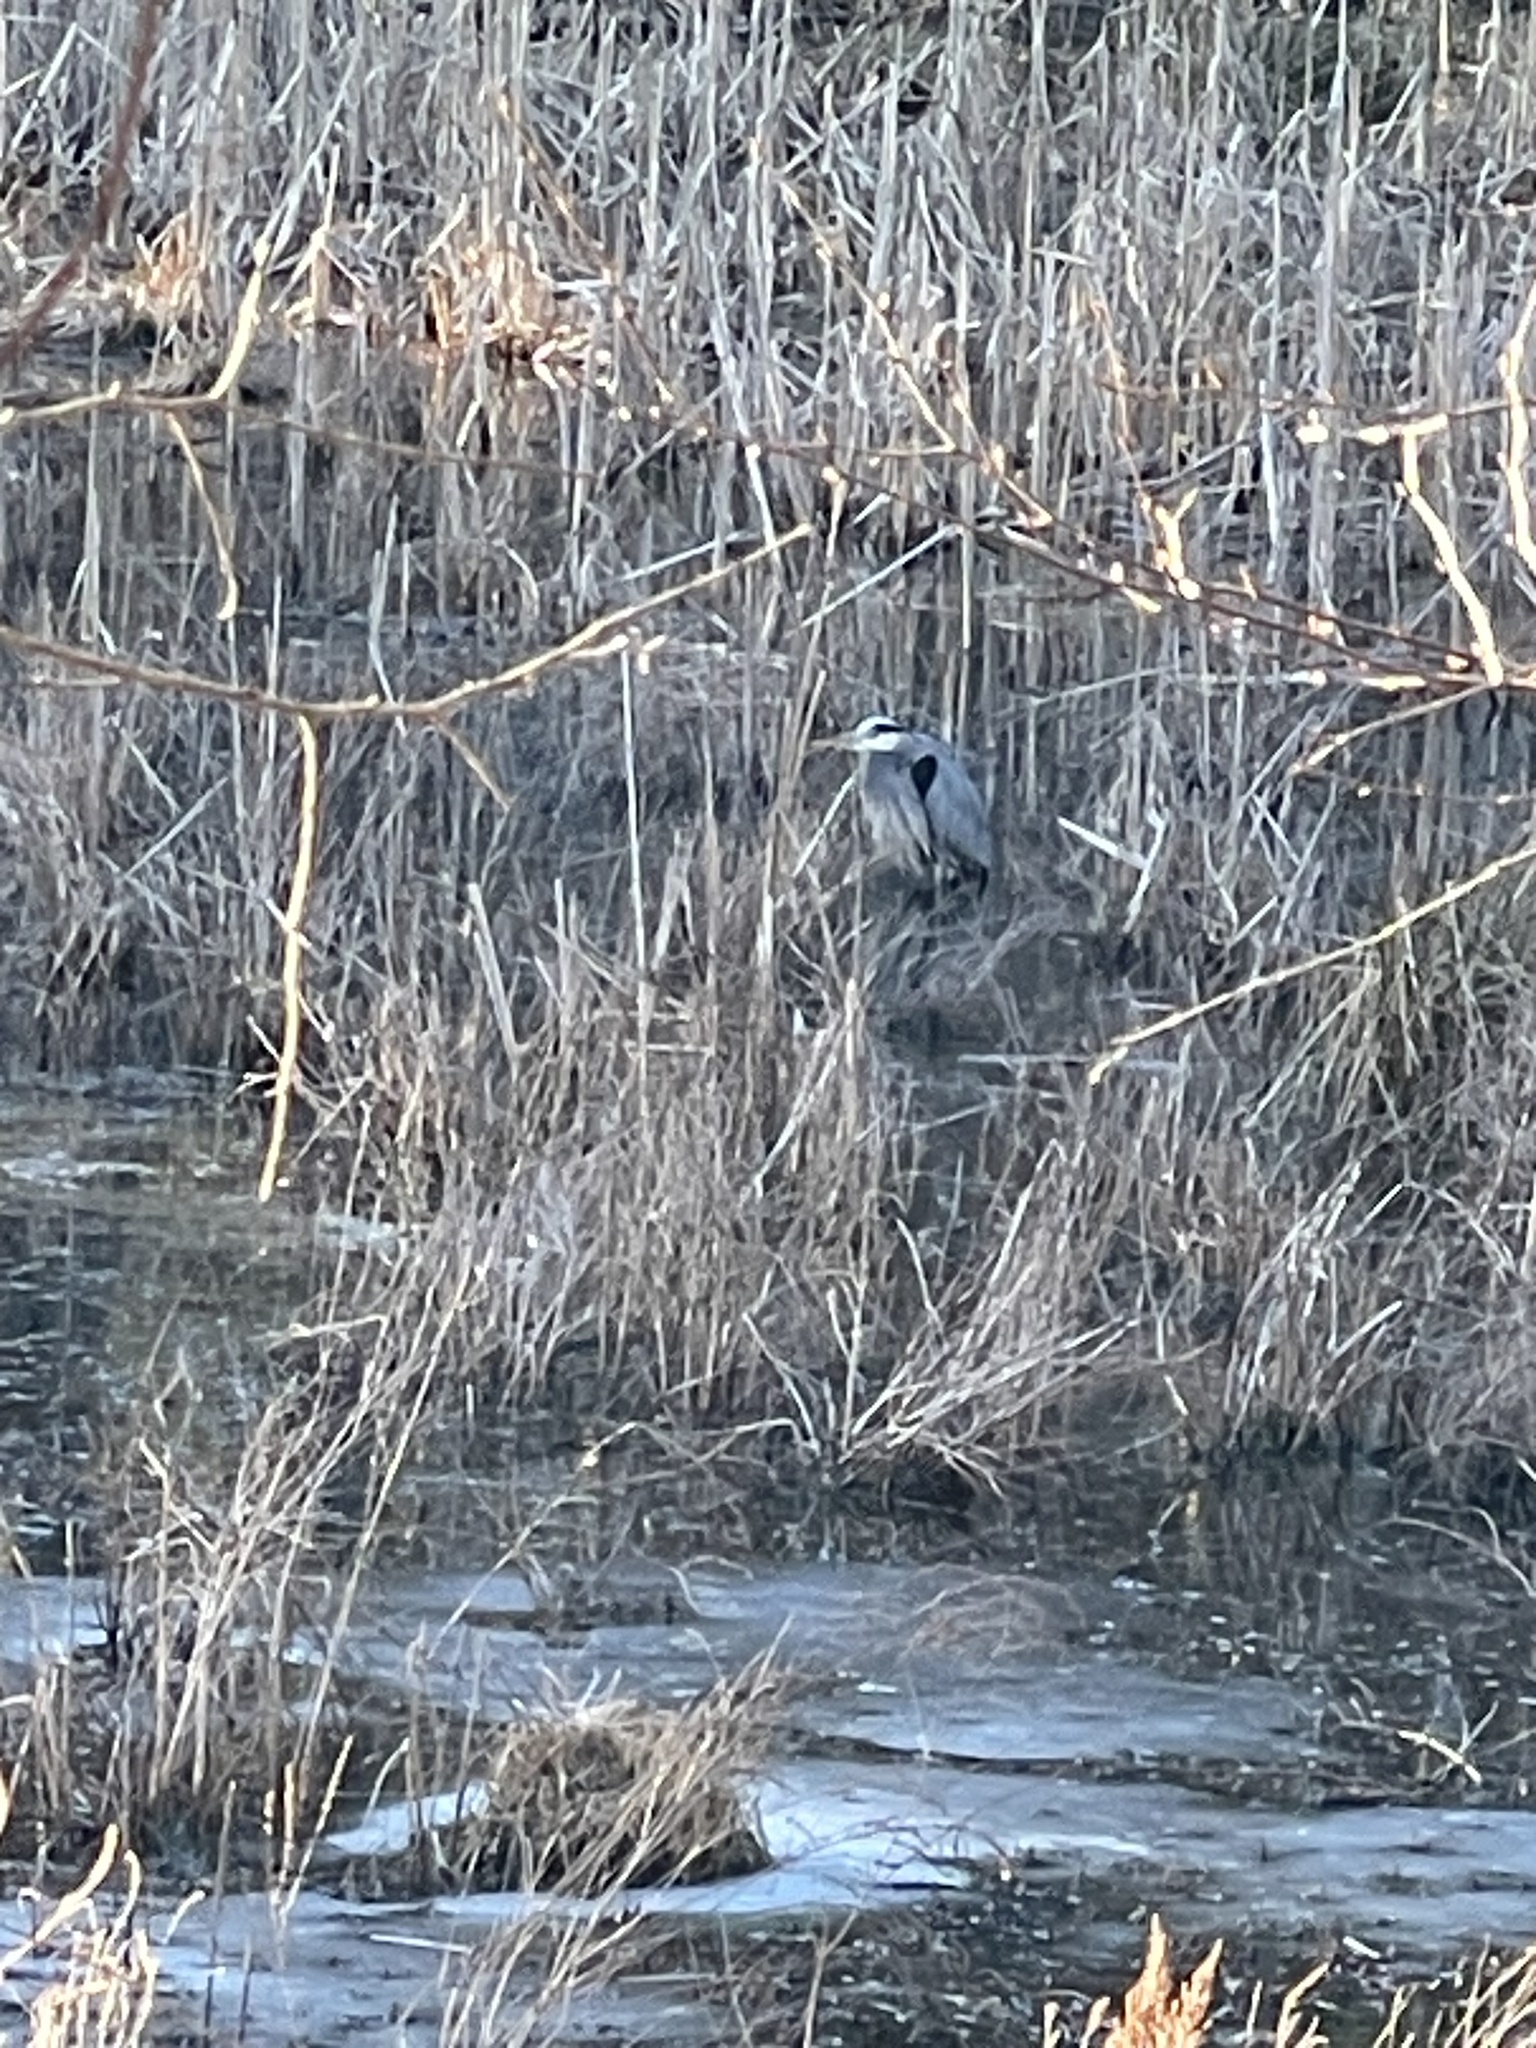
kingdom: Animalia
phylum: Chordata
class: Aves
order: Pelecaniformes
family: Ardeidae
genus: Ardea
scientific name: Ardea herodias
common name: Great blue heron
